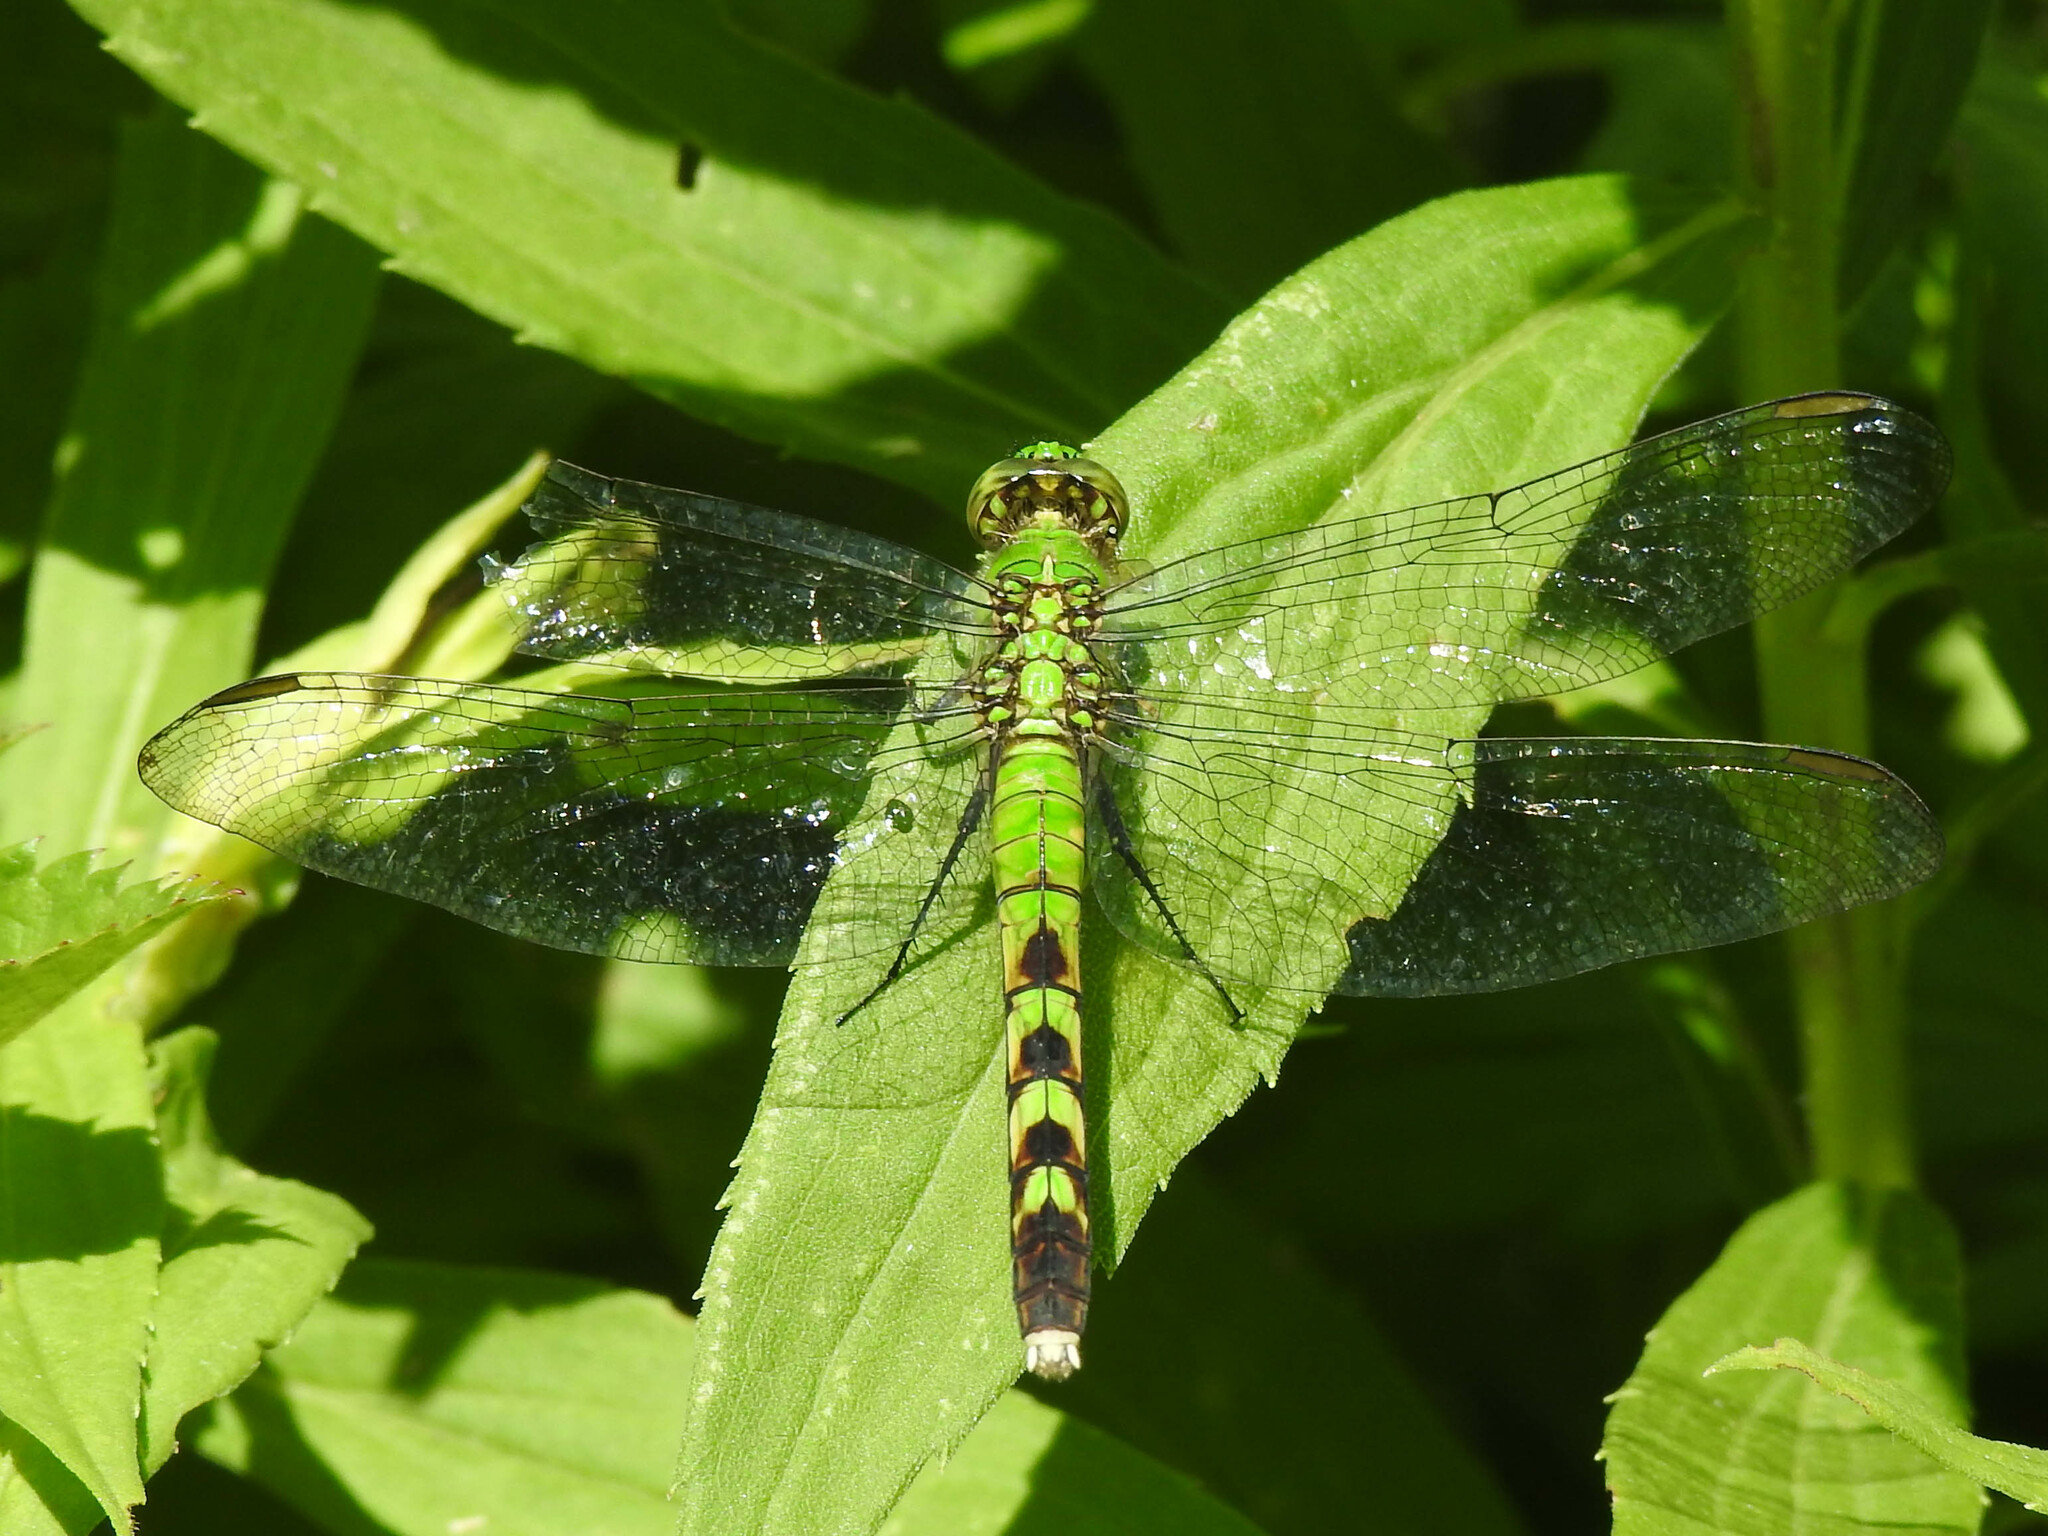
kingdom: Animalia
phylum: Arthropoda
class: Insecta
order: Odonata
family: Libellulidae
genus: Erythemis
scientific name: Erythemis simplicicollis
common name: Eastern pondhawk
